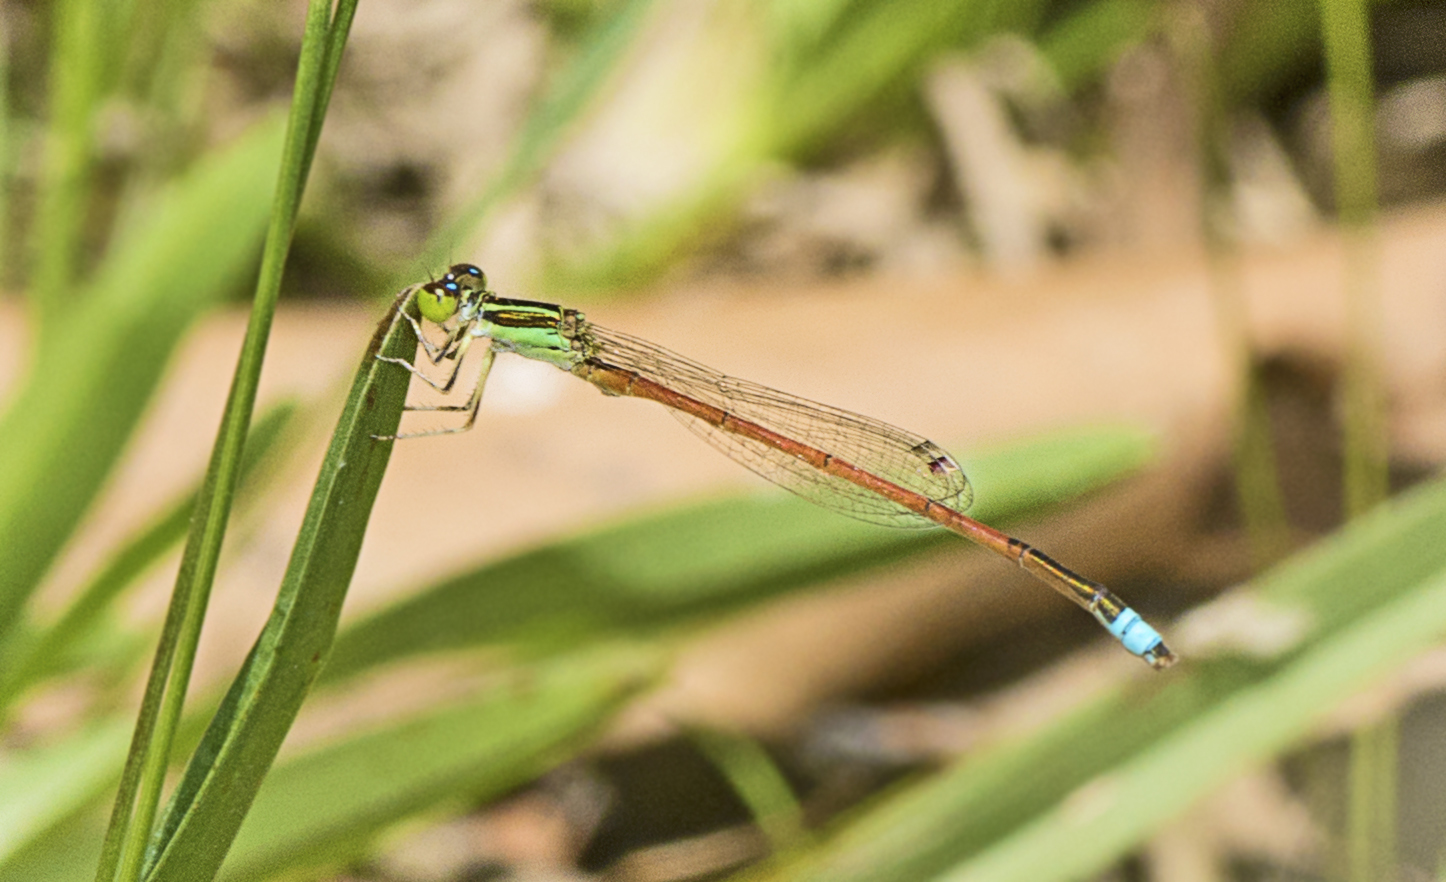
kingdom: Animalia
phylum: Arthropoda
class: Insecta
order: Odonata
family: Coenagrionidae
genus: Ischnura
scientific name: Ischnura aurora
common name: Gossamer damselfly
